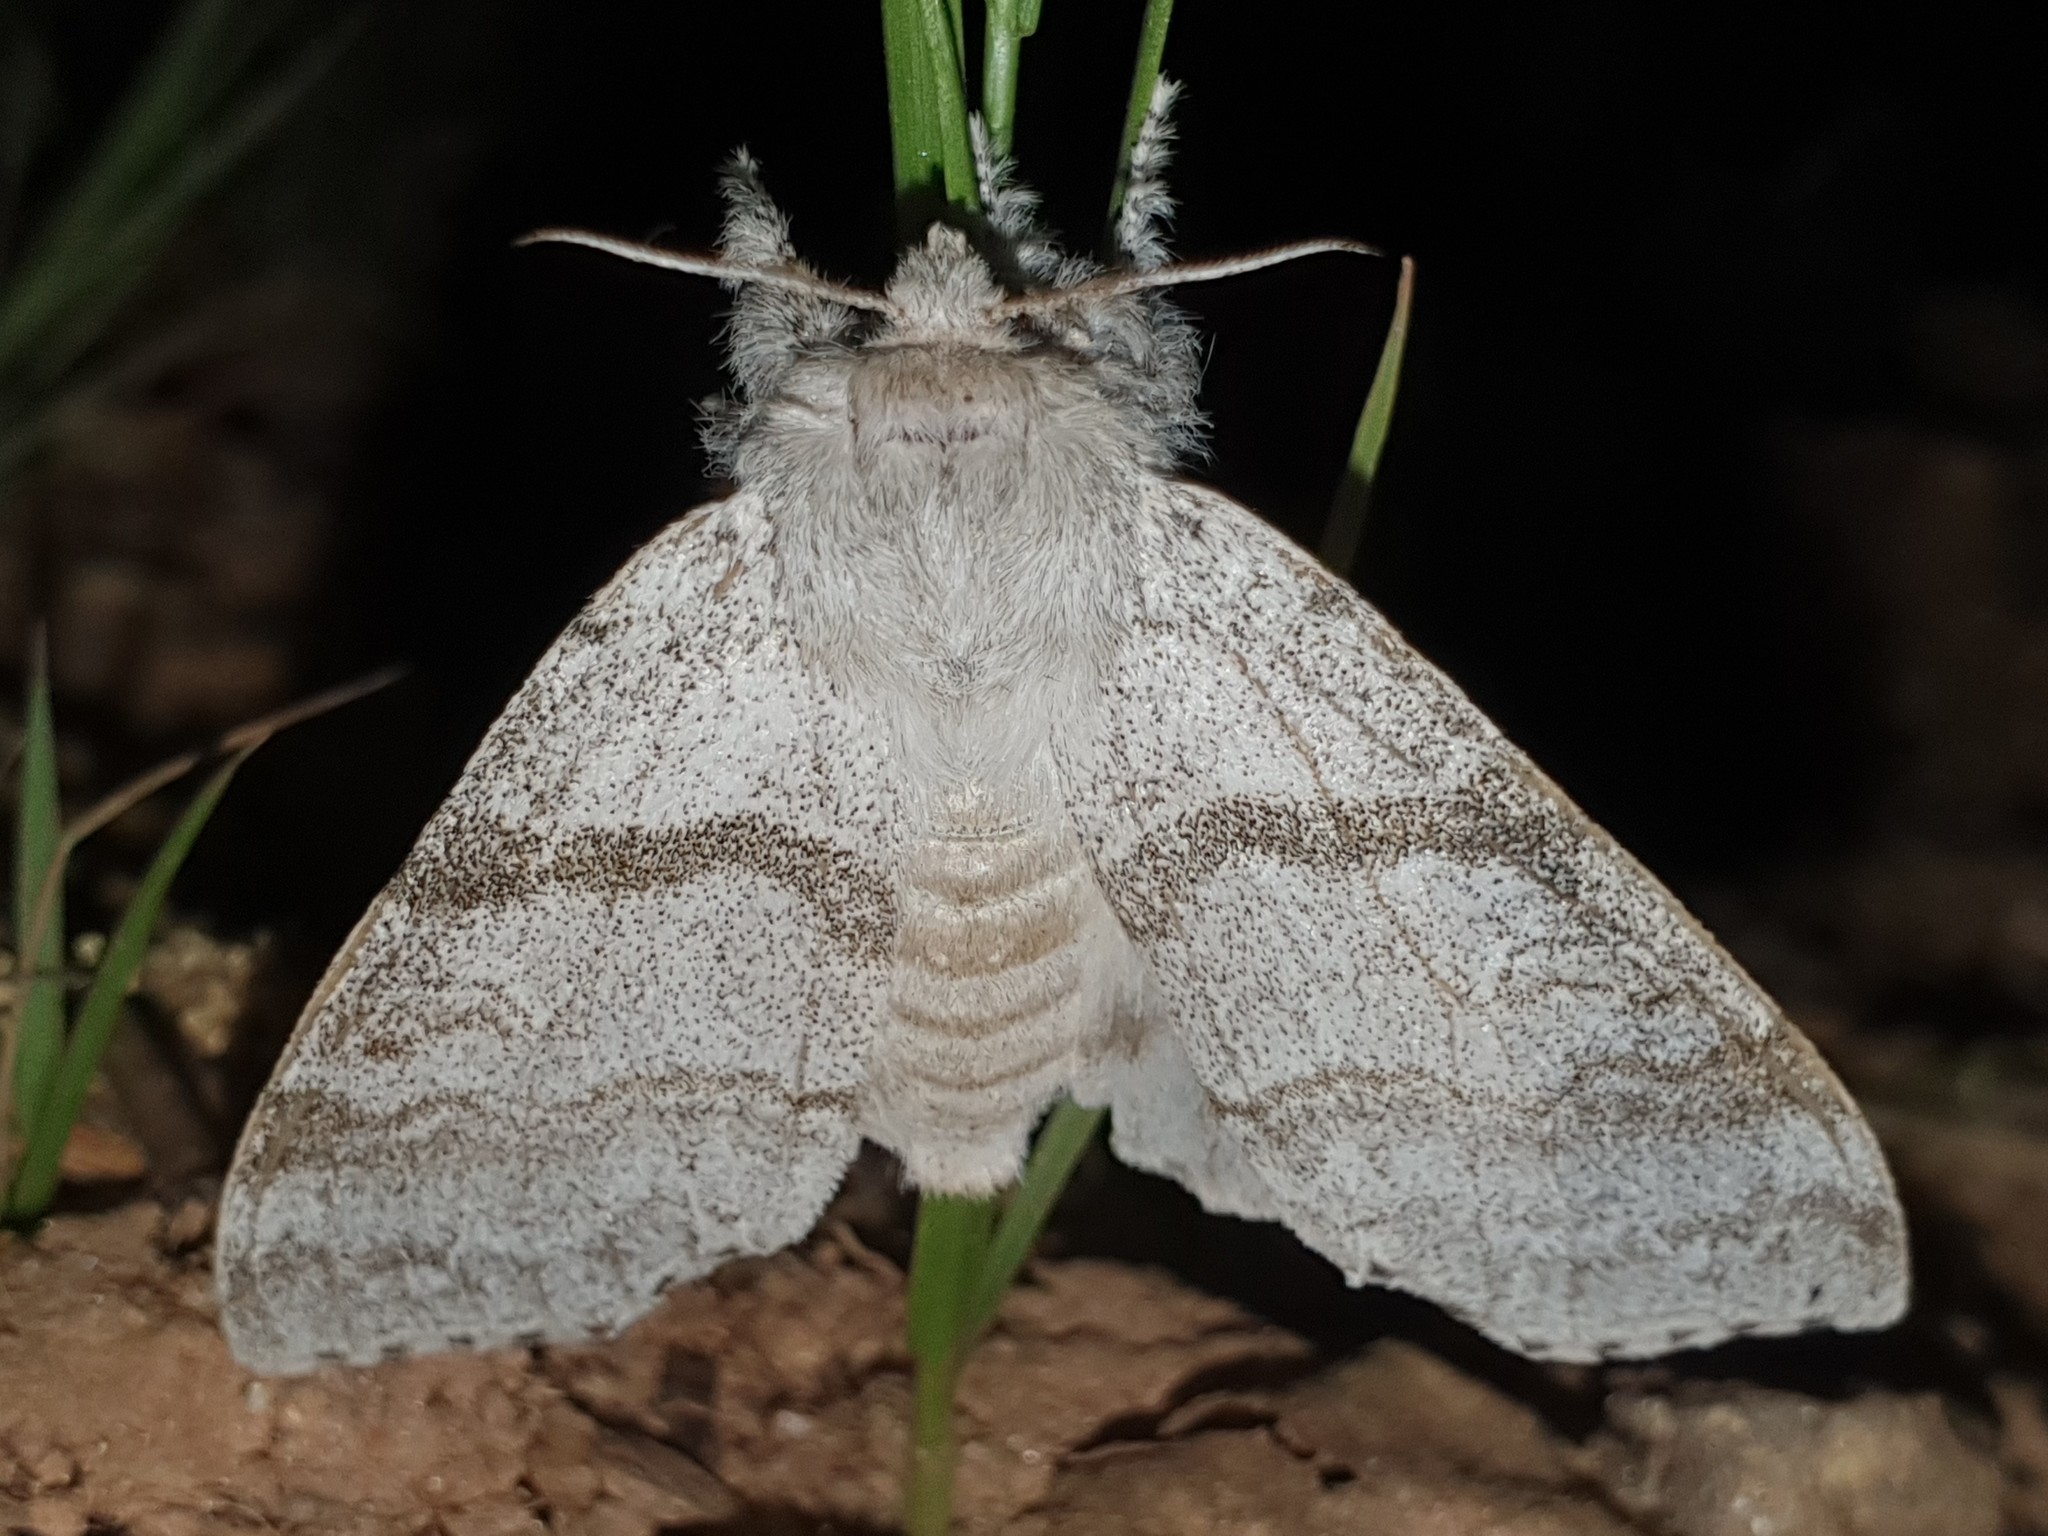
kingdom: Animalia
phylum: Arthropoda
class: Insecta
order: Lepidoptera
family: Erebidae
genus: Calliteara
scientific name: Calliteara pudibunda
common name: Pale tussock
